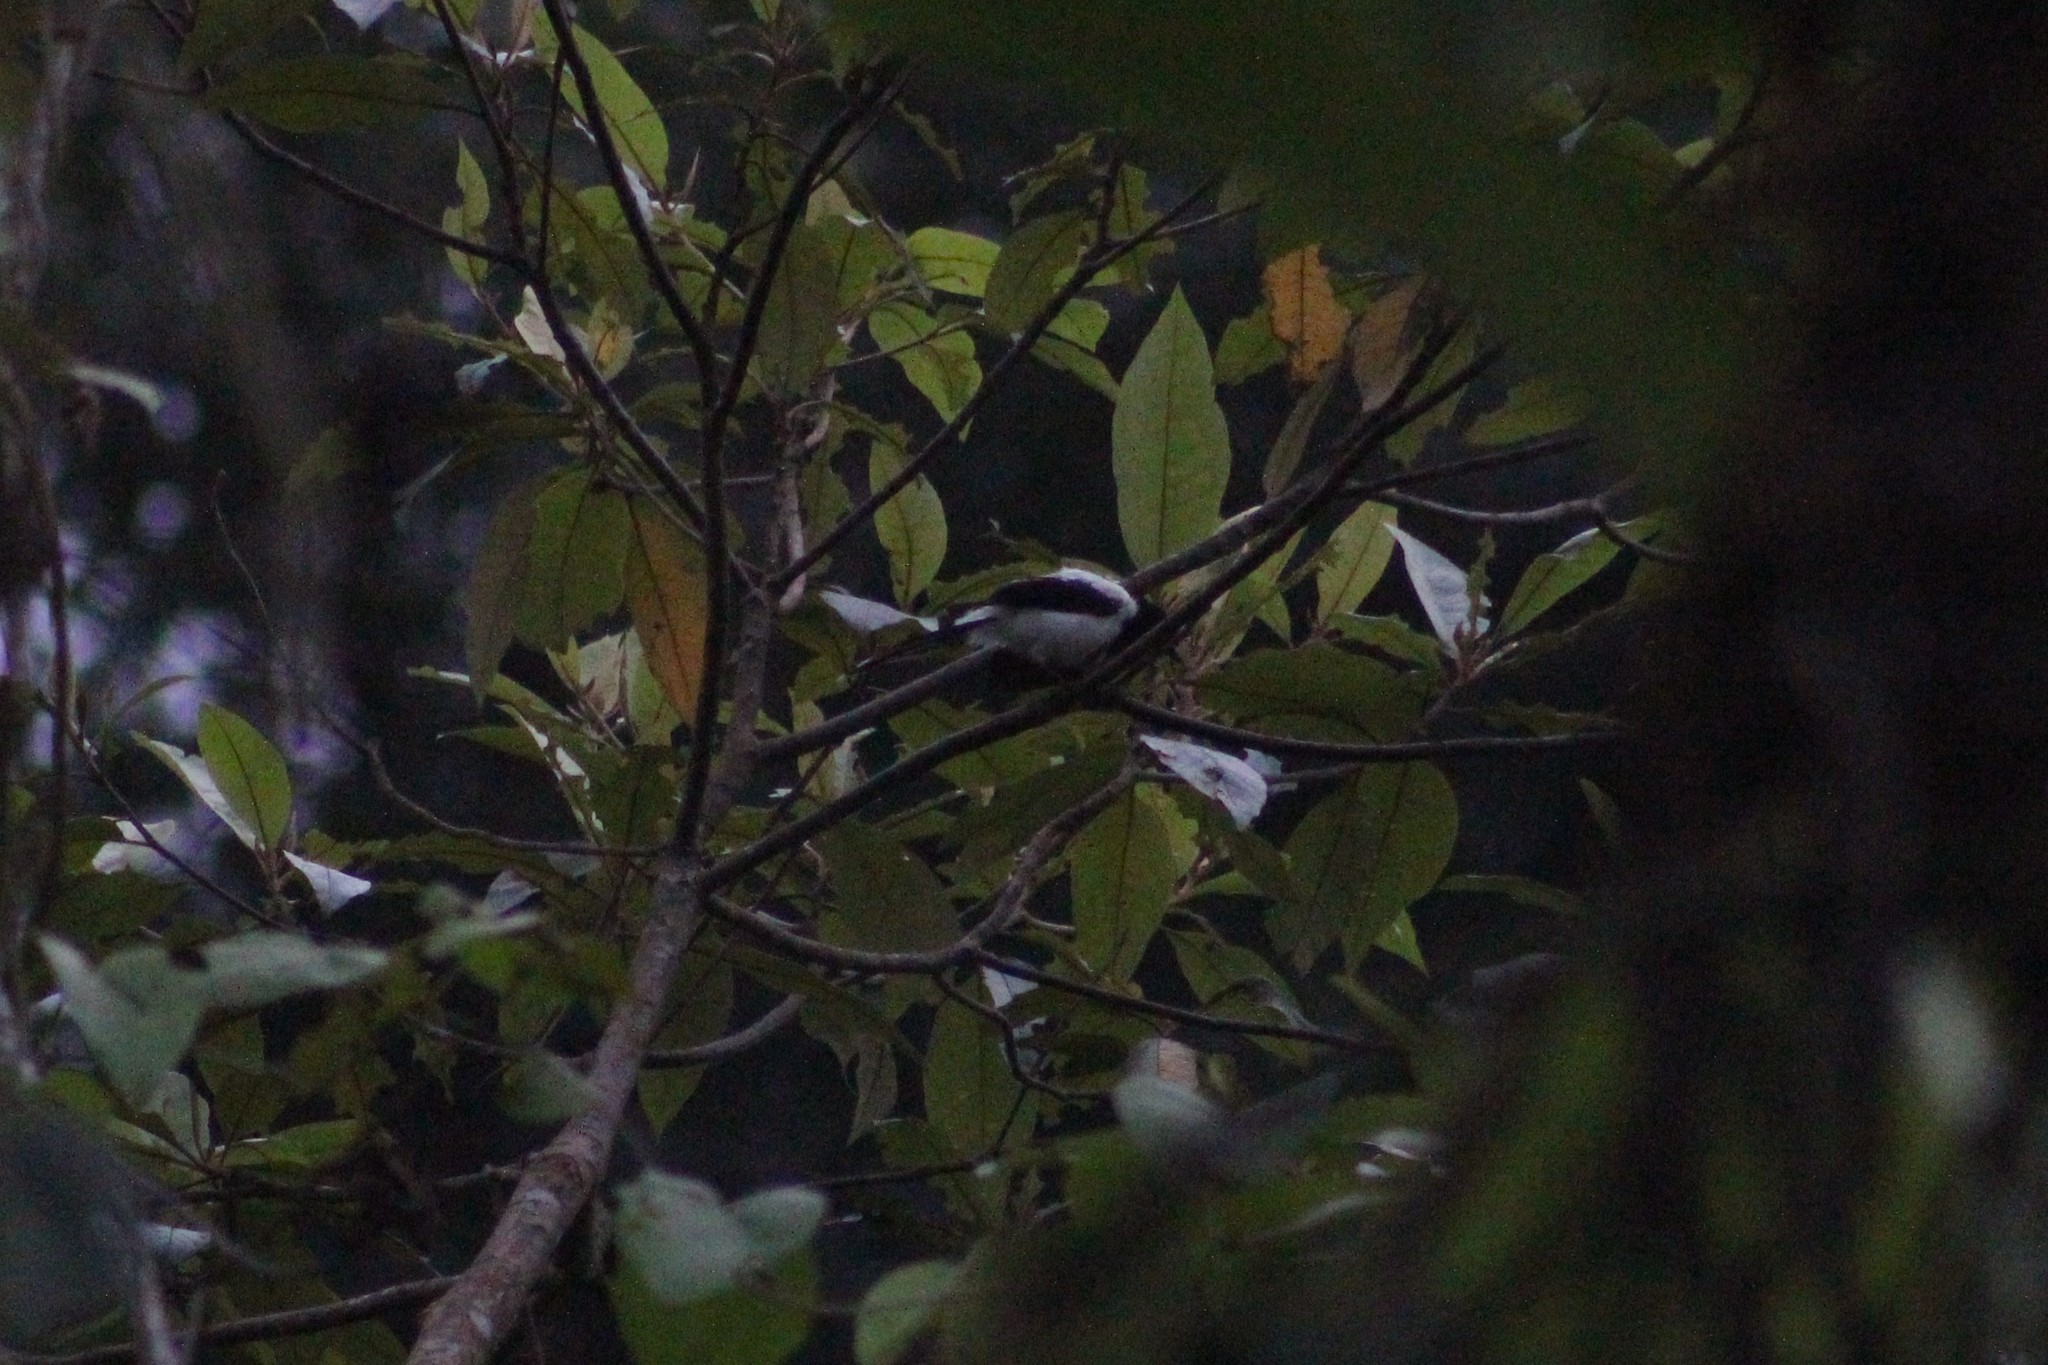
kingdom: Animalia
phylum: Chordata
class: Aves
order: Passeriformes
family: Thraupidae
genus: Cissopis
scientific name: Cissopis leverianus
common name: Magpie tanager
